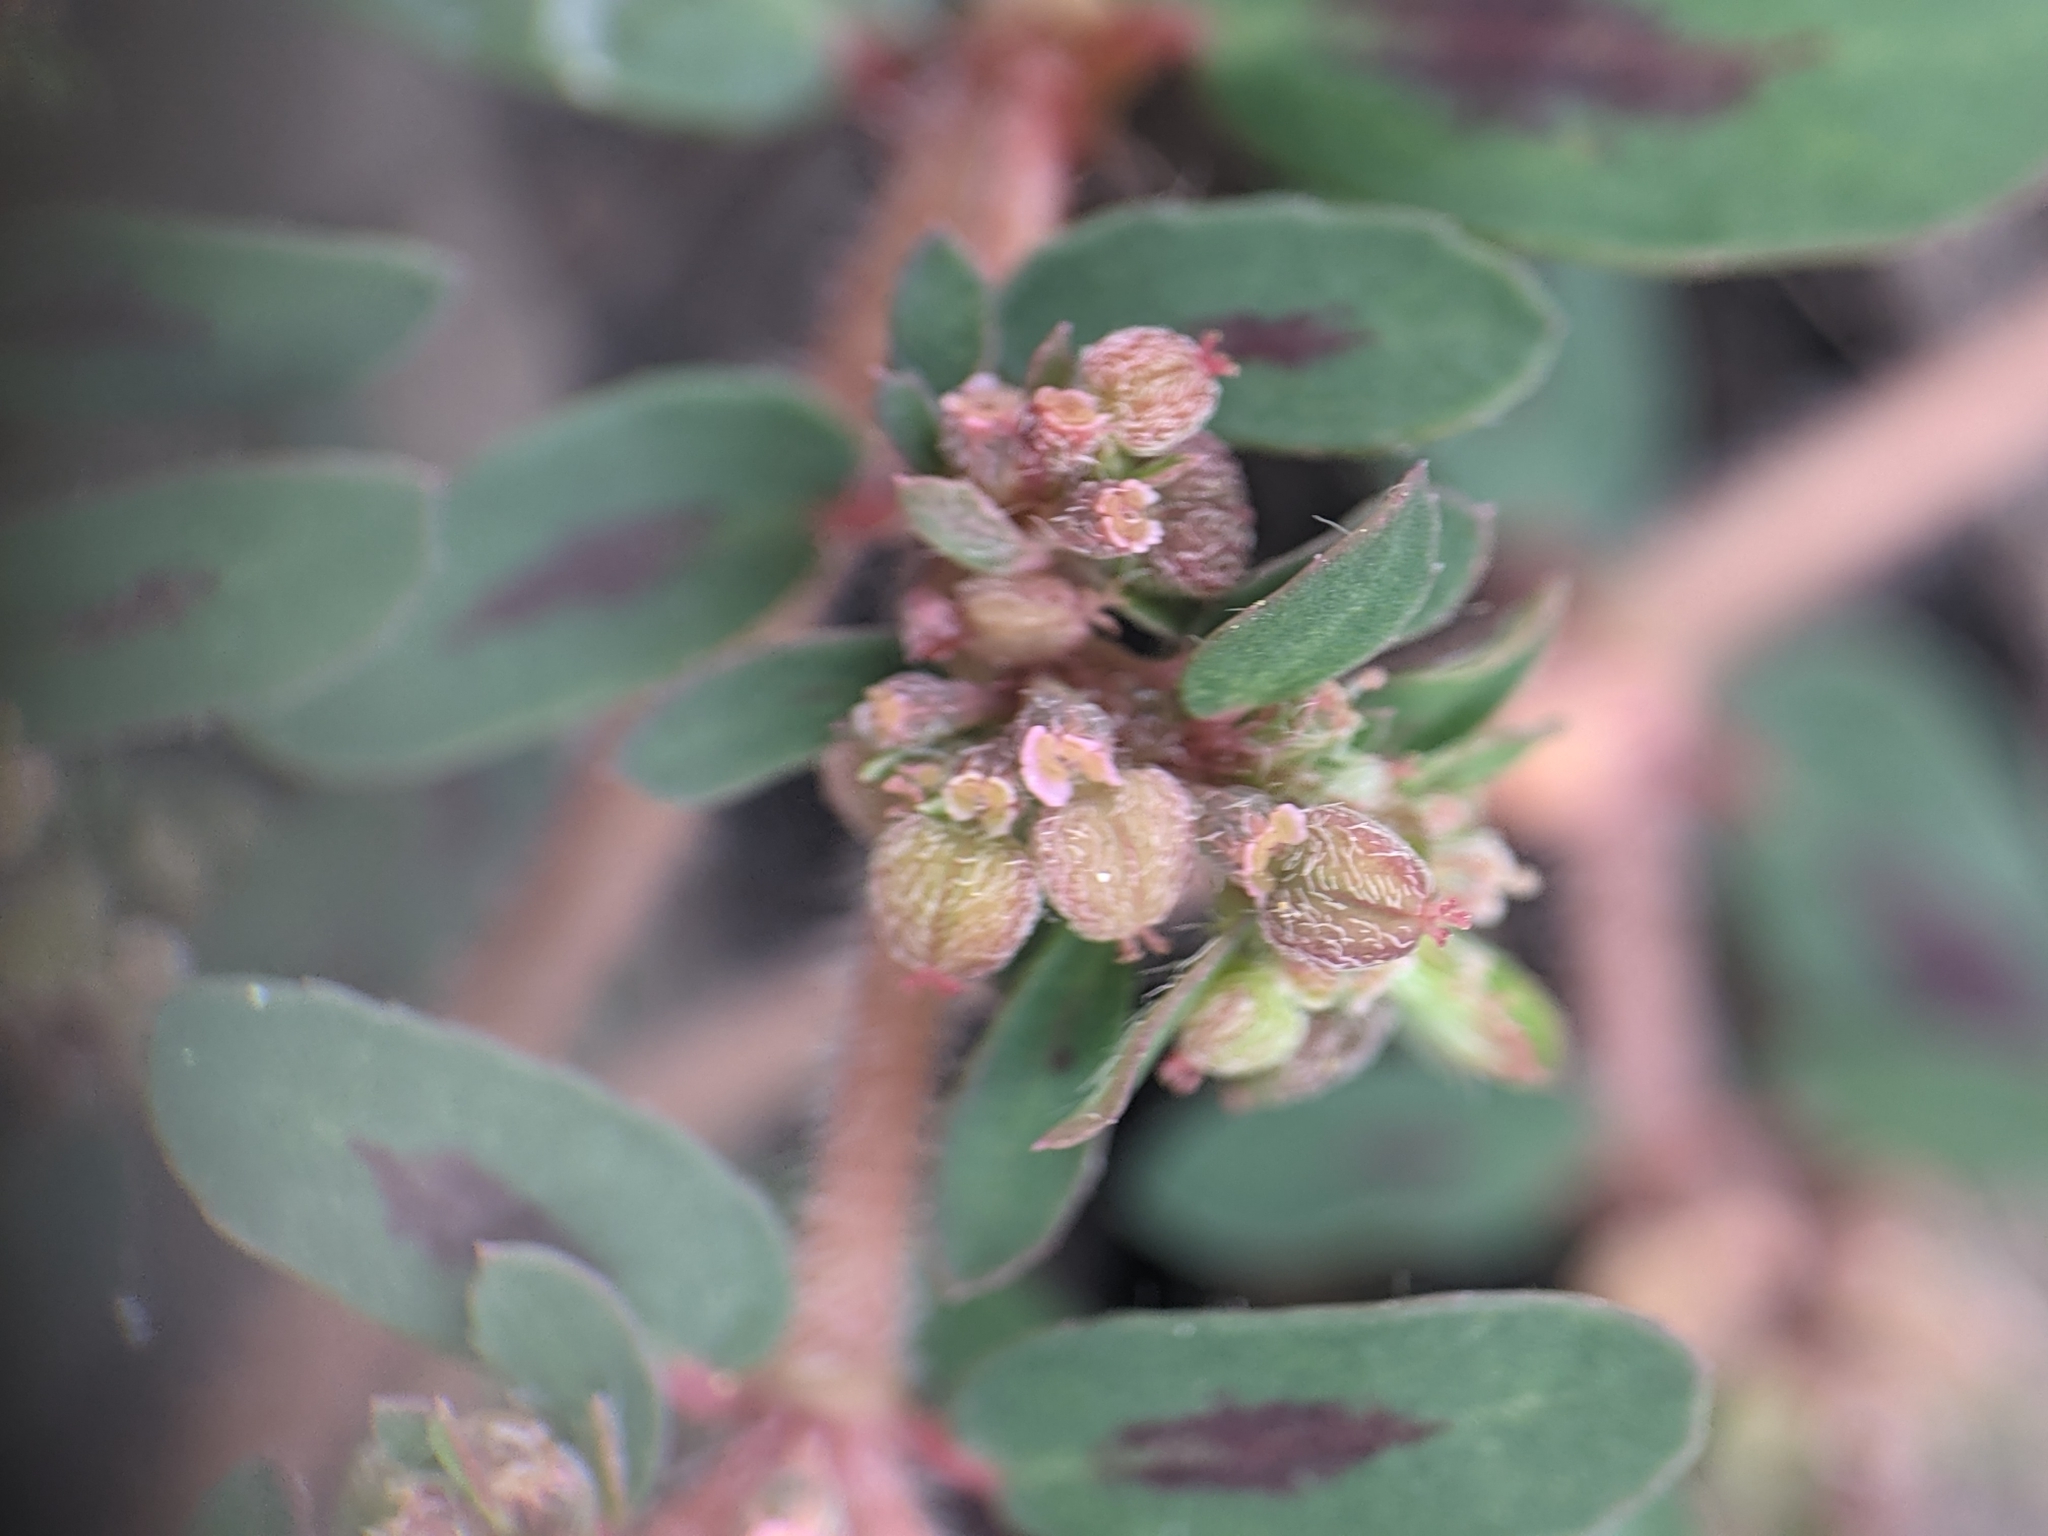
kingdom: Plantae
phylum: Tracheophyta
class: Magnoliopsida
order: Malpighiales
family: Euphorbiaceae
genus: Euphorbia
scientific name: Euphorbia maculata
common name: Spotted spurge
